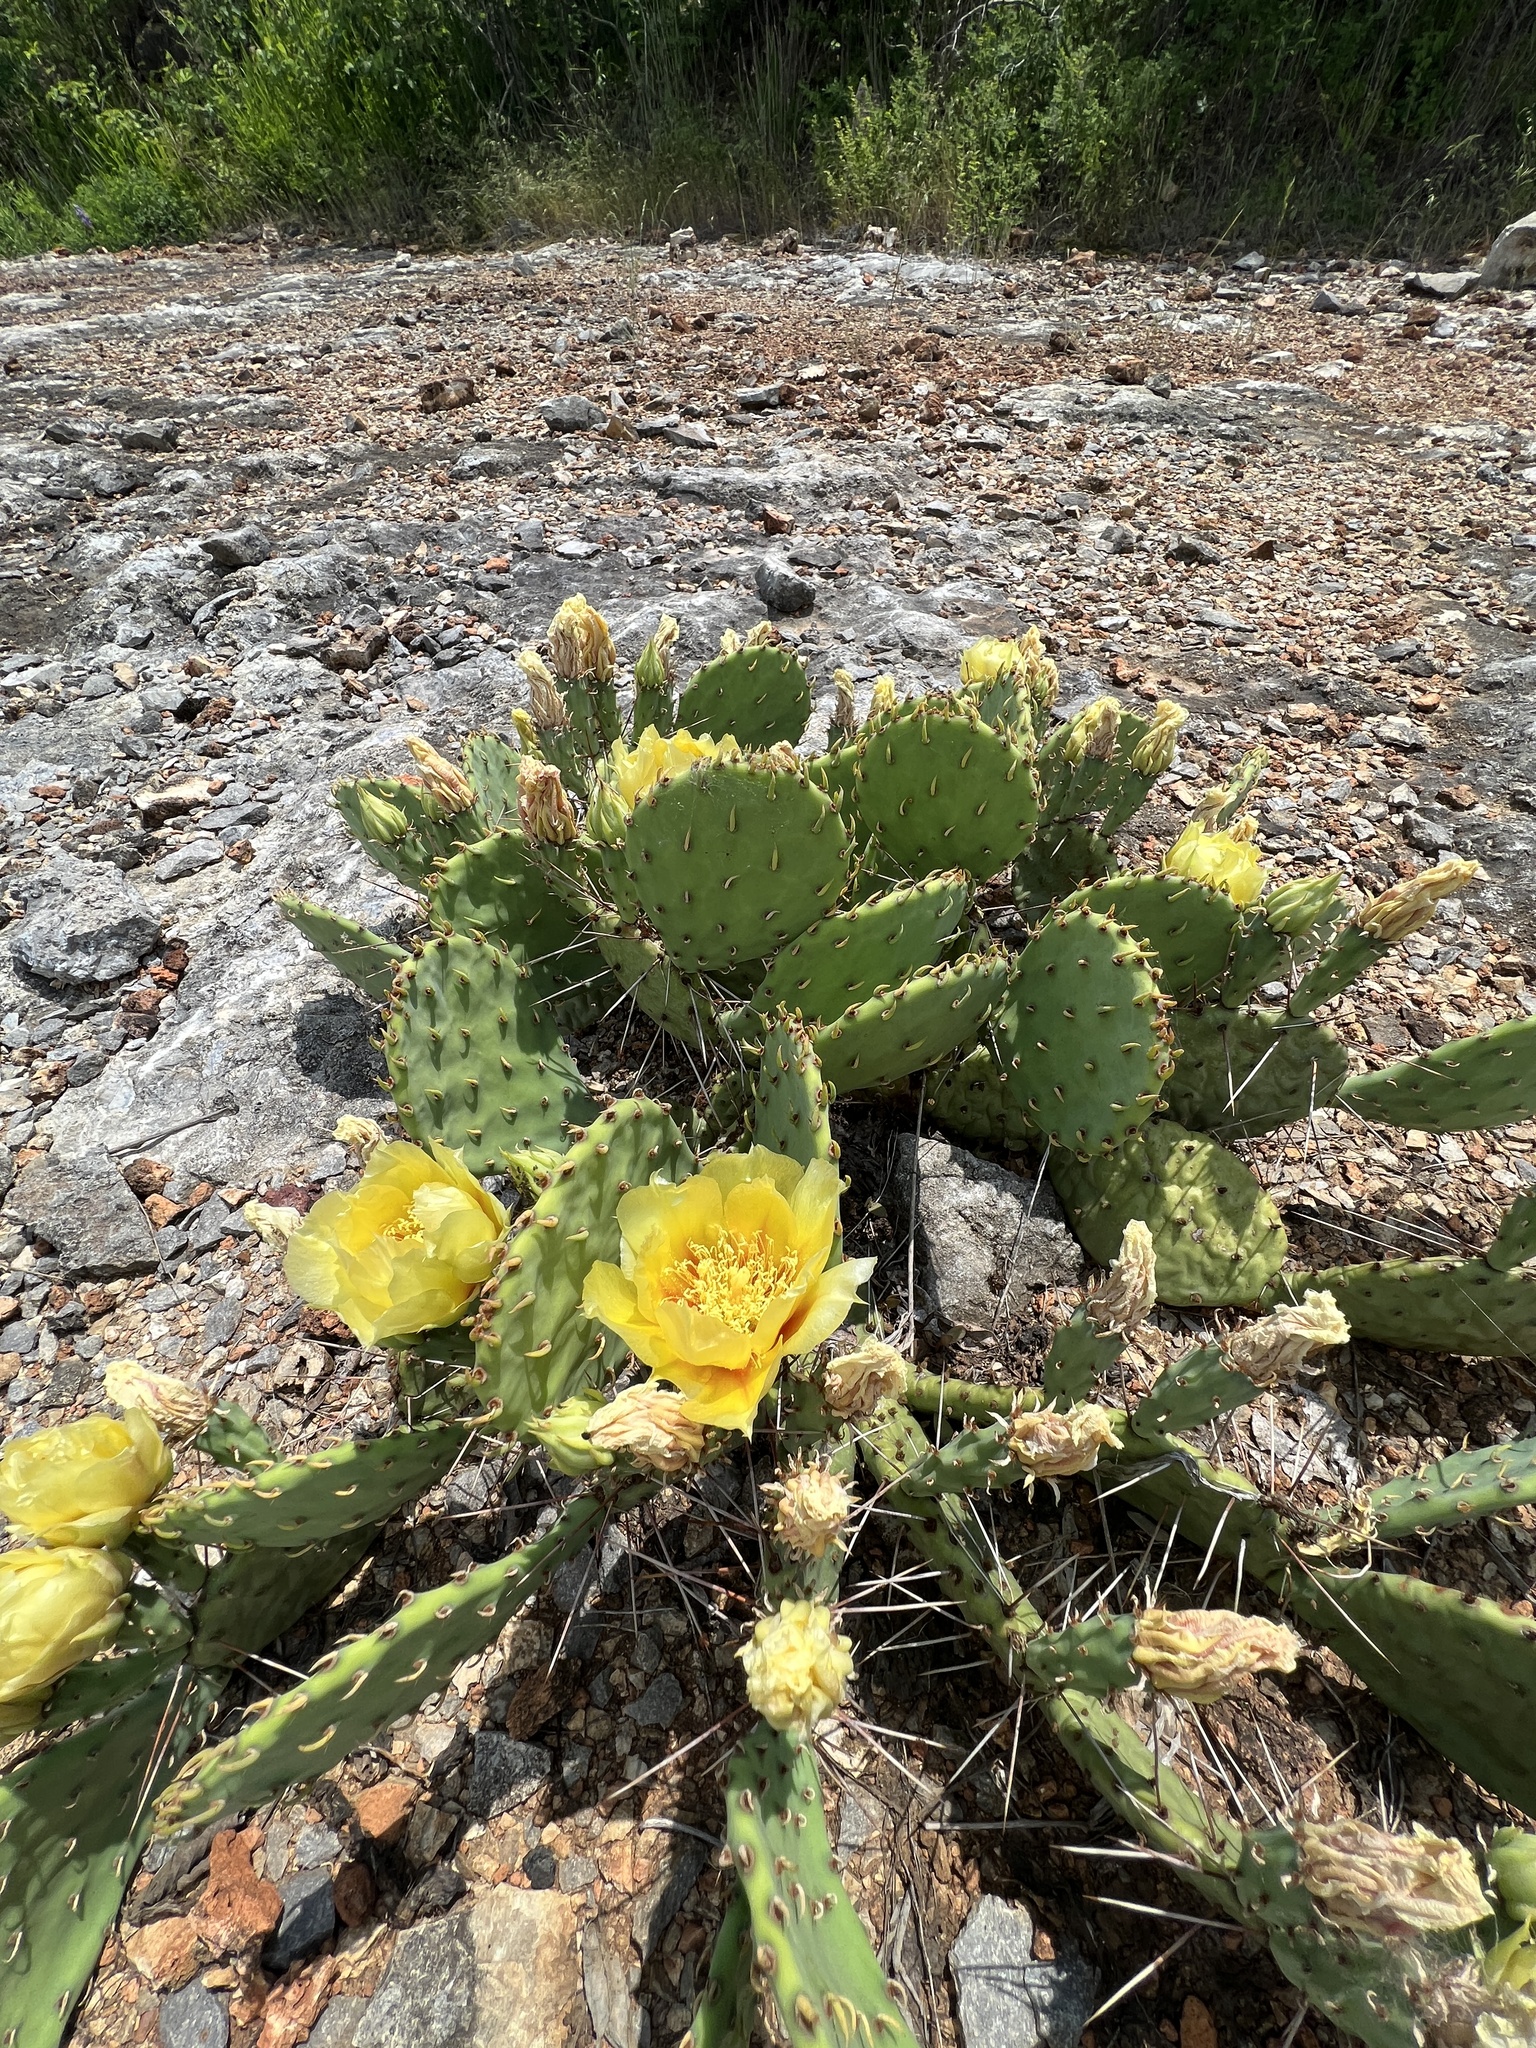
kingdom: Plantae
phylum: Tracheophyta
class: Magnoliopsida
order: Caryophyllales
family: Cactaceae
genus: Opuntia
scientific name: Opuntia macrorhiza
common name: Grassland pricklypear
